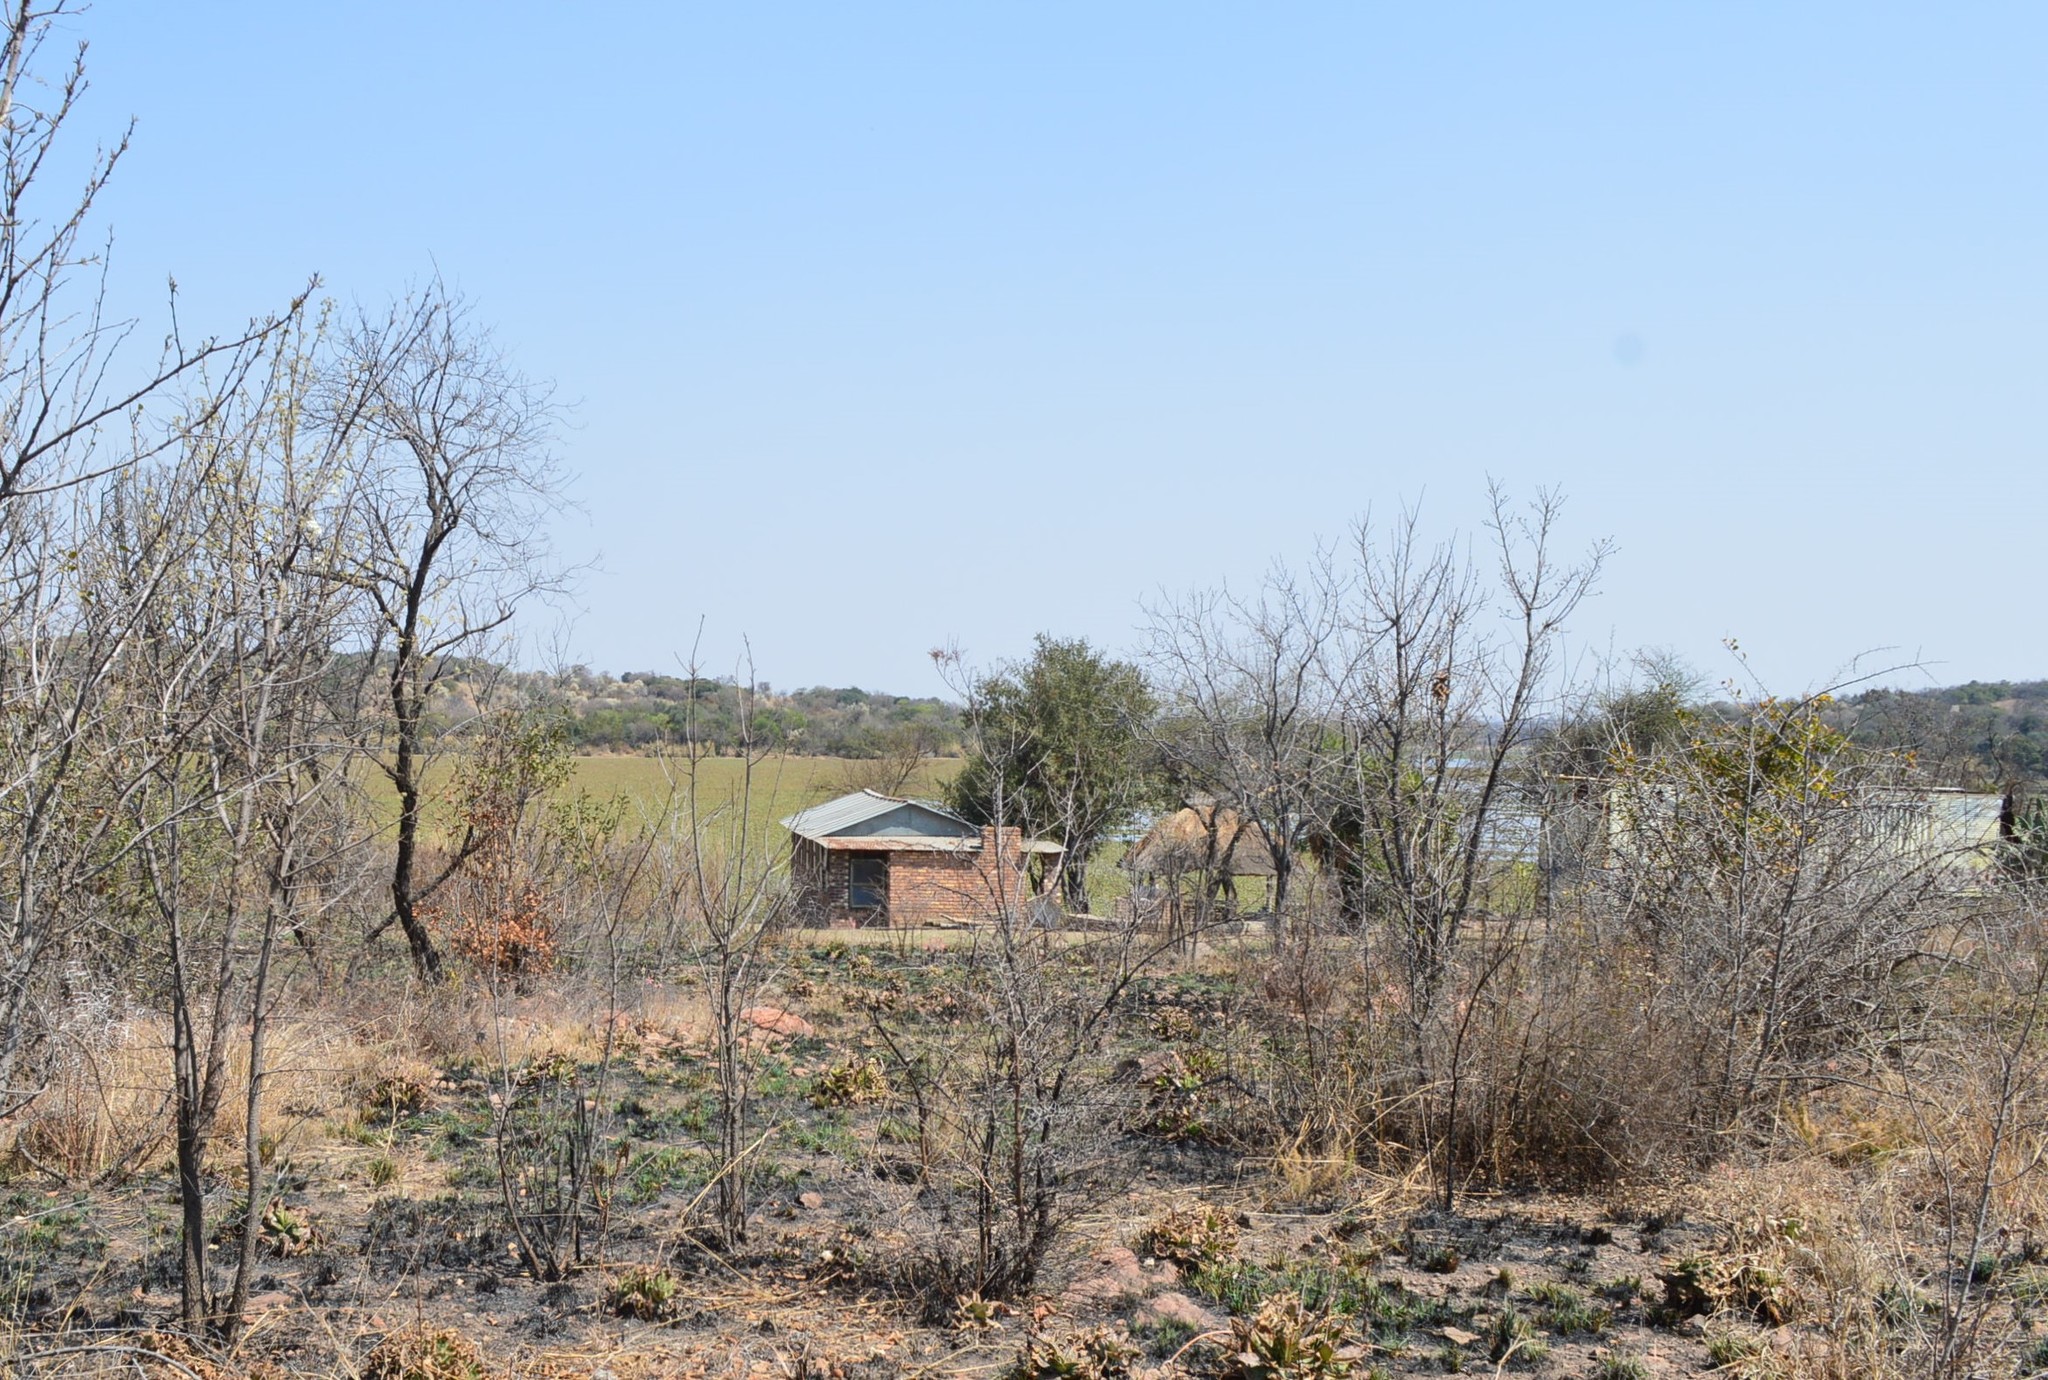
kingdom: Plantae
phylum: Tracheophyta
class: Liliopsida
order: Commelinales
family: Pontederiaceae
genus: Pontederia
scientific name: Pontederia crassipes
